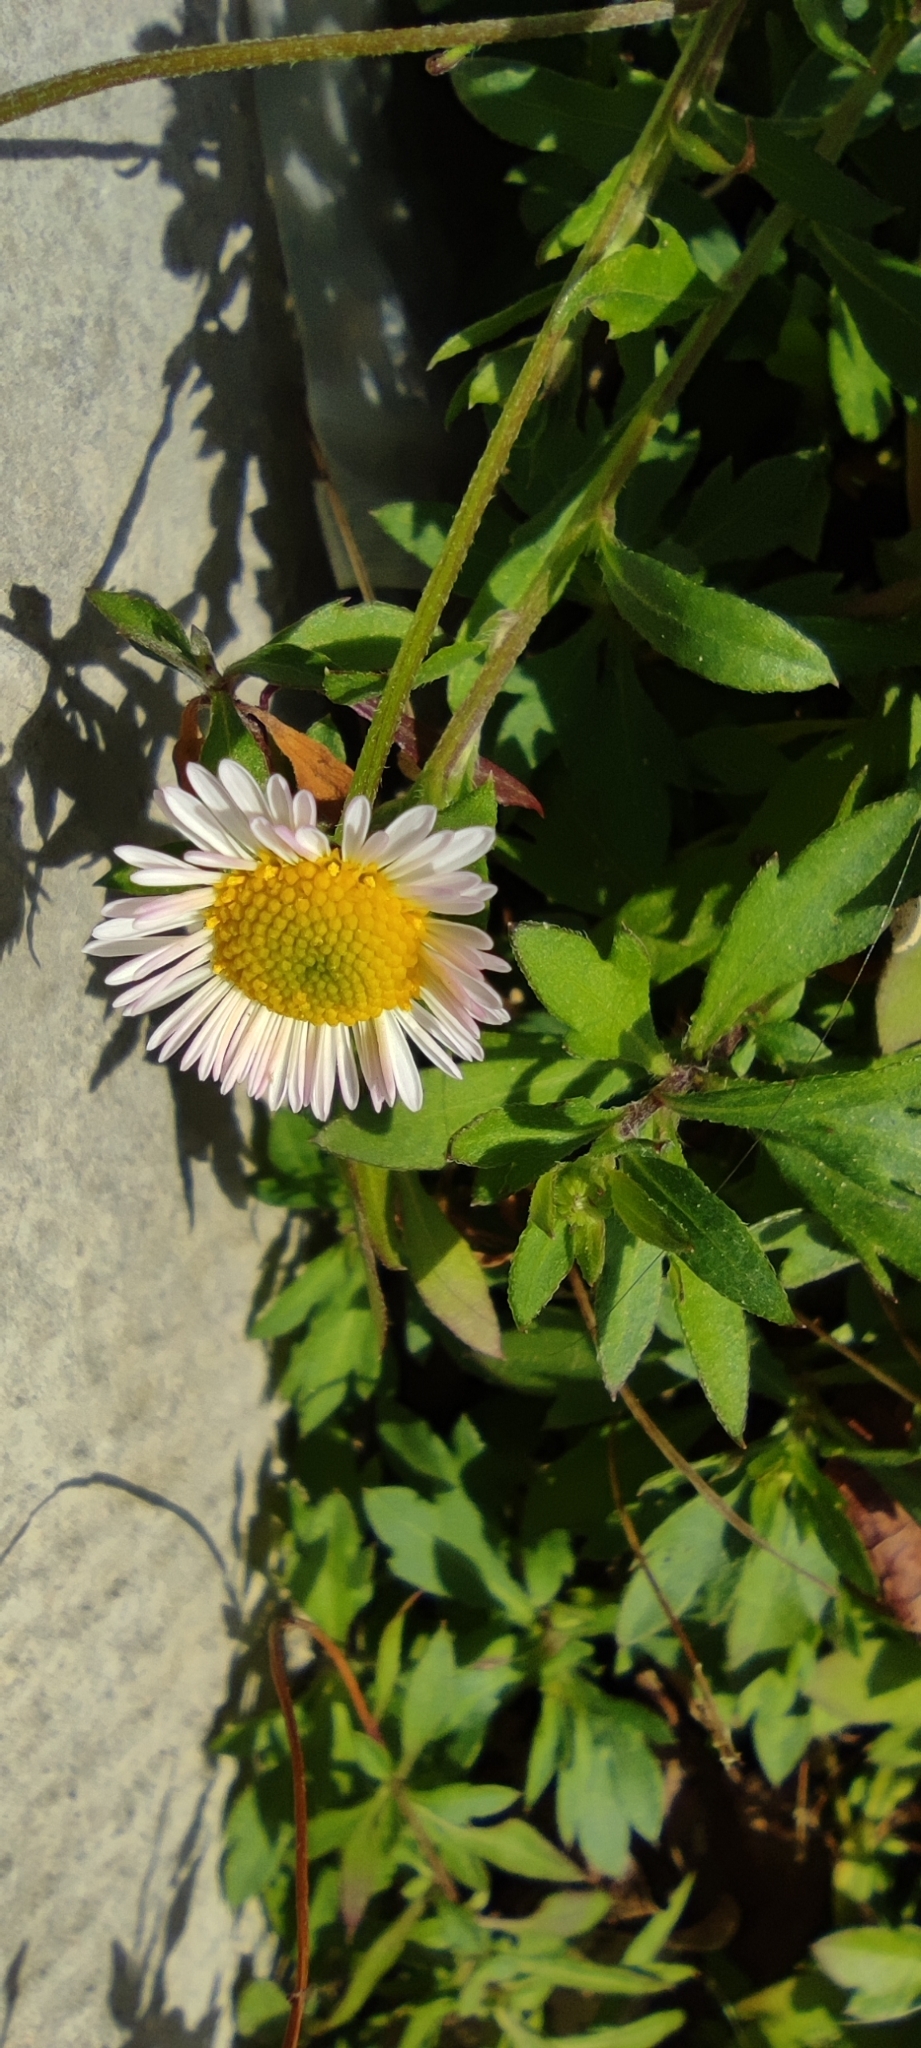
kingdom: Plantae
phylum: Tracheophyta
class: Magnoliopsida
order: Asterales
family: Asteraceae
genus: Erigeron
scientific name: Erigeron karvinskianus
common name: Mexican fleabane
